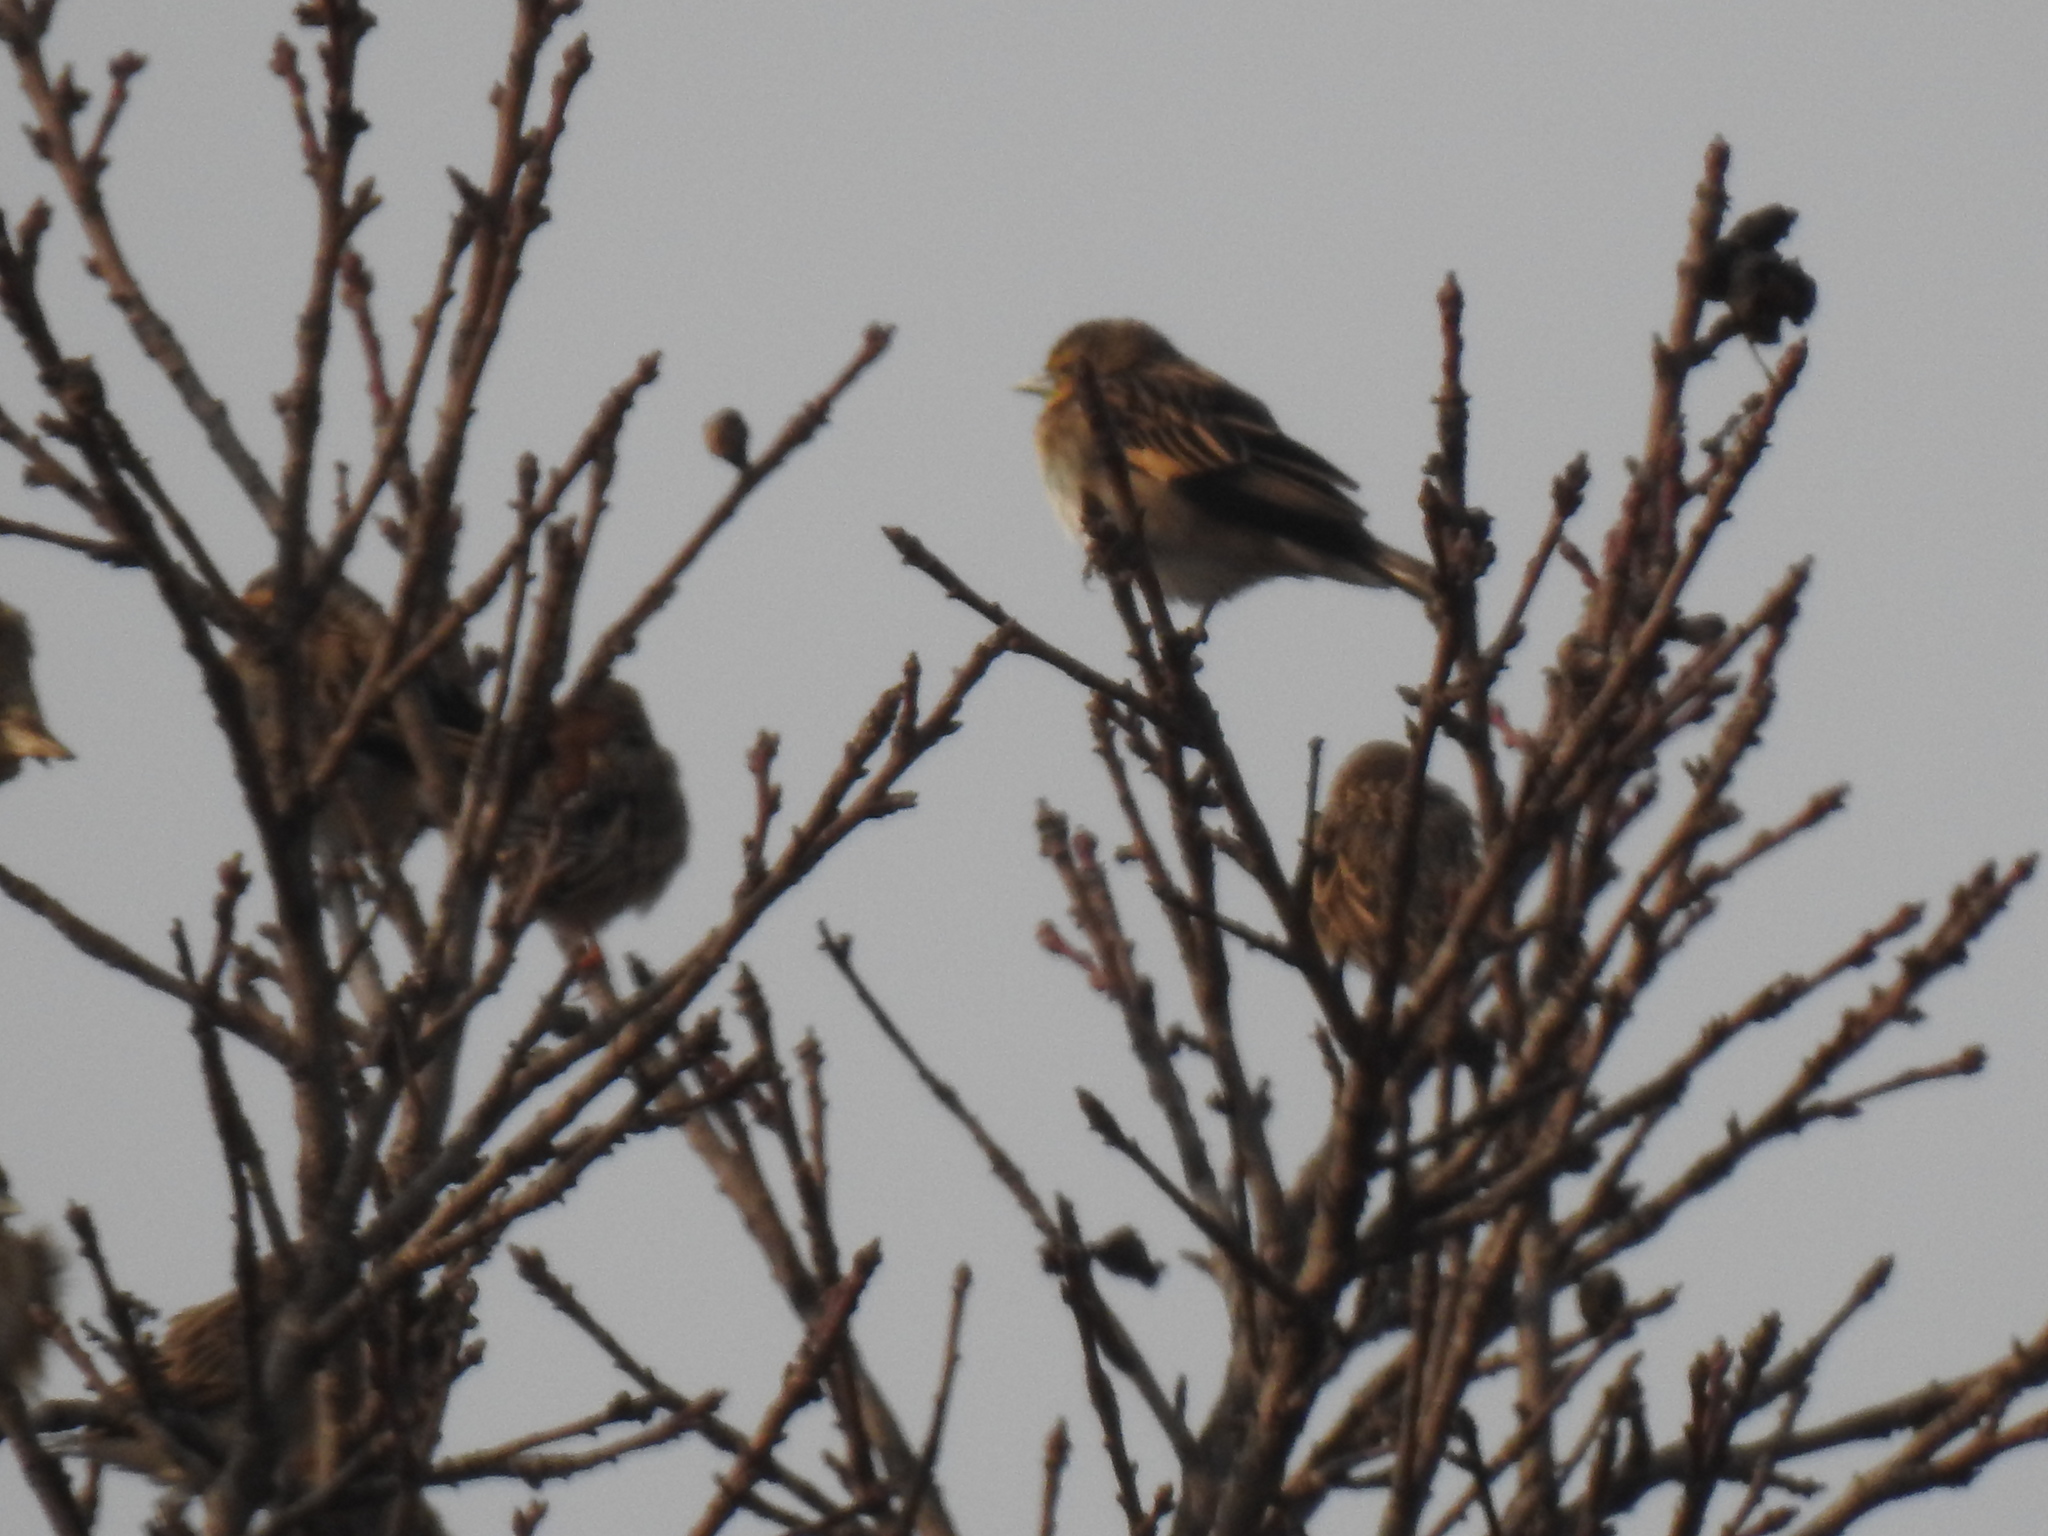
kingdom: Animalia
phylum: Chordata
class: Aves
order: Passeriformes
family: Ploceidae
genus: Quelea
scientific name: Quelea quelea
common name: Red-billed quelea
